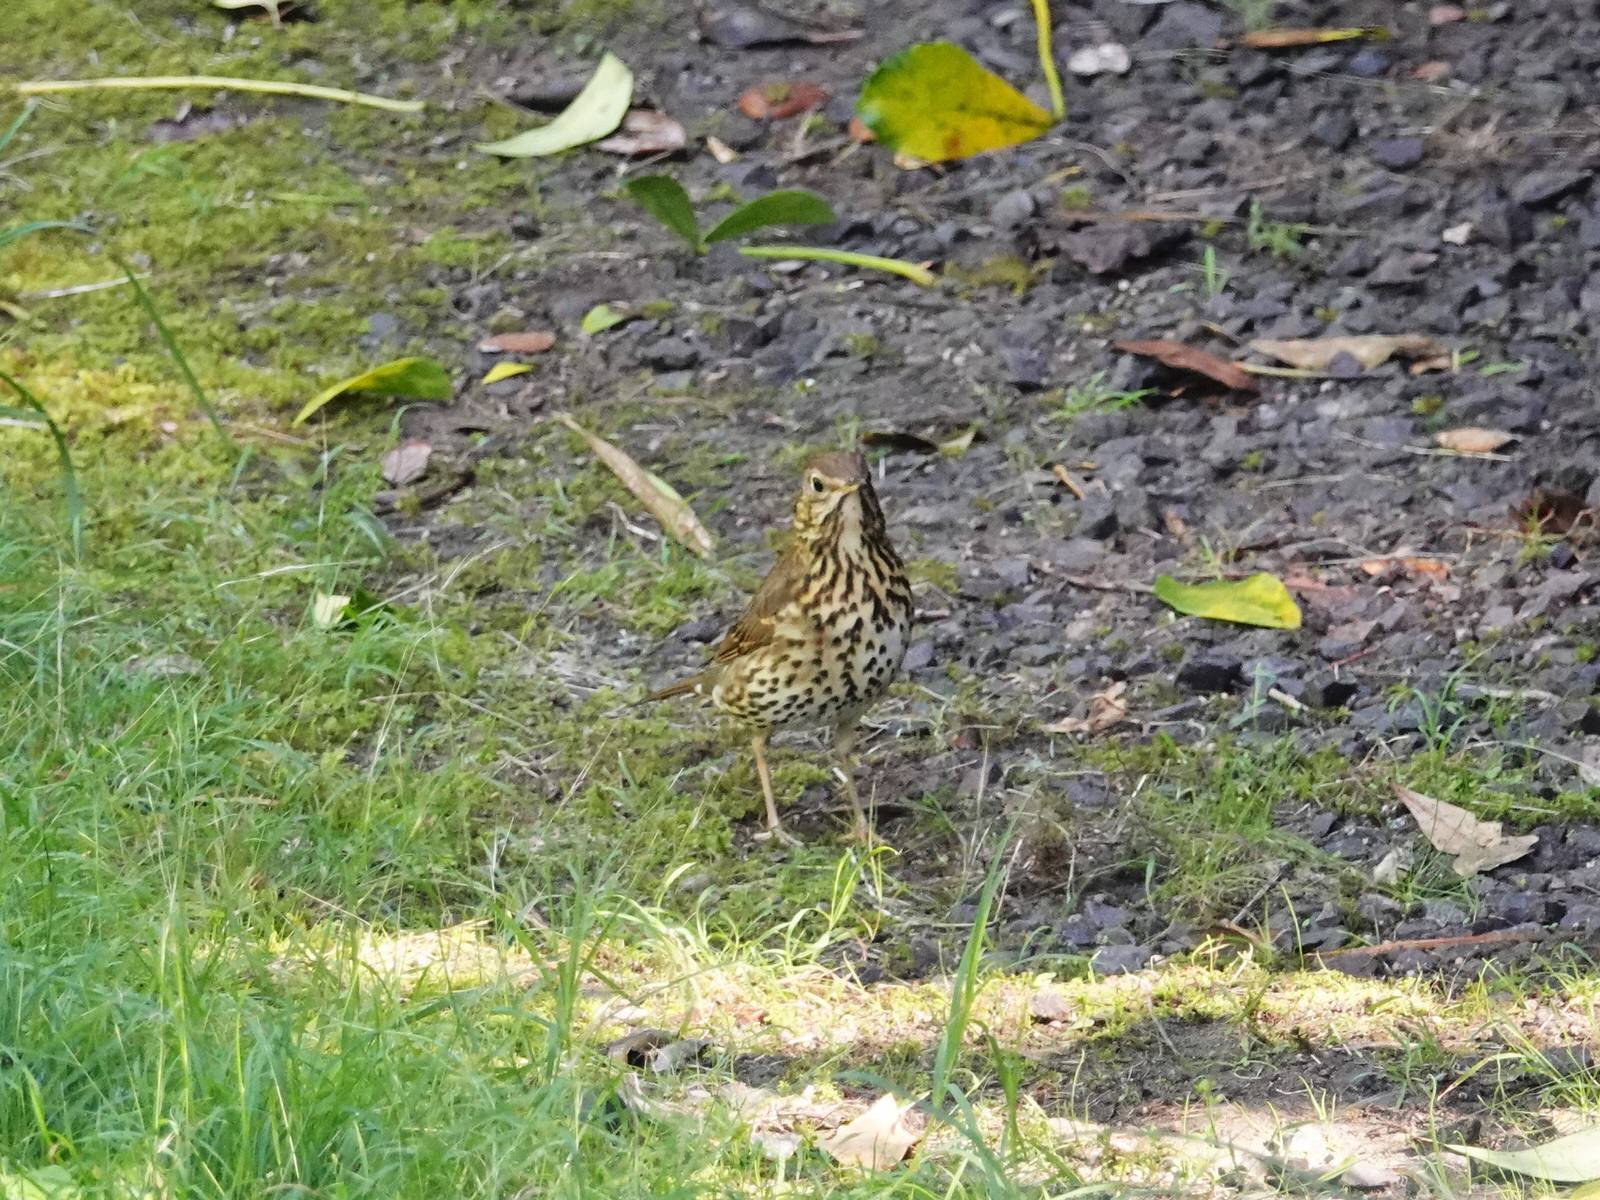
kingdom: Animalia
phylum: Chordata
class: Aves
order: Passeriformes
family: Turdidae
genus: Turdus
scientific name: Turdus philomelos
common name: Song thrush
